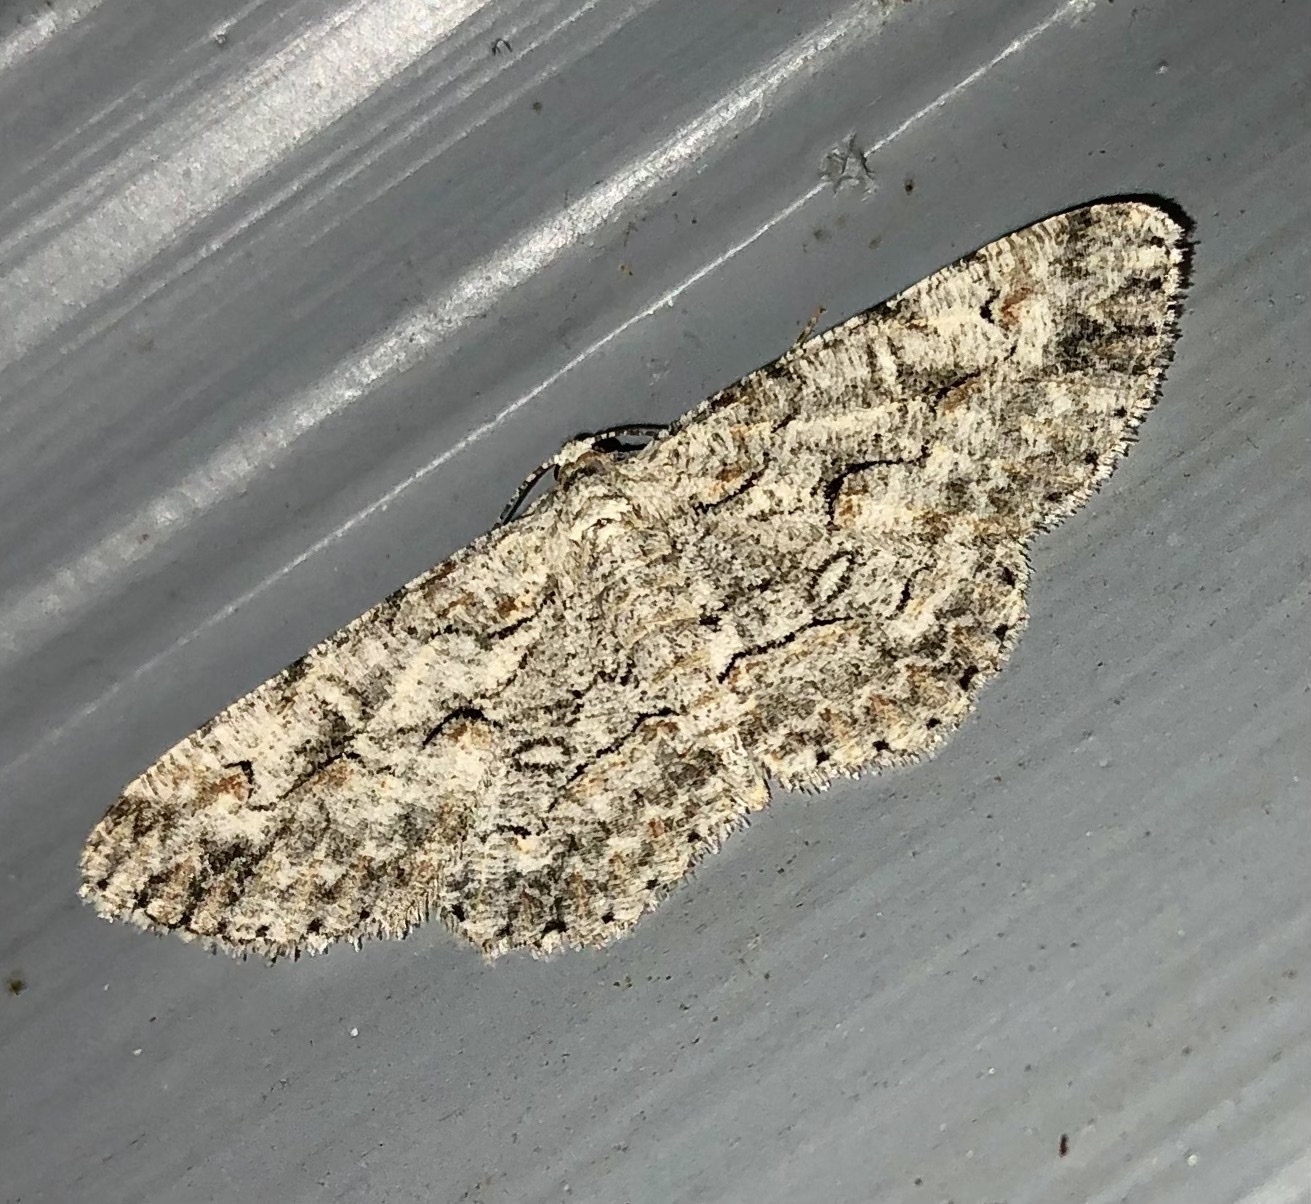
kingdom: Animalia
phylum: Arthropoda
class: Insecta
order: Lepidoptera
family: Geometridae
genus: Iridopsis
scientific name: Iridopsis defectaria
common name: Brown-shaded gray
